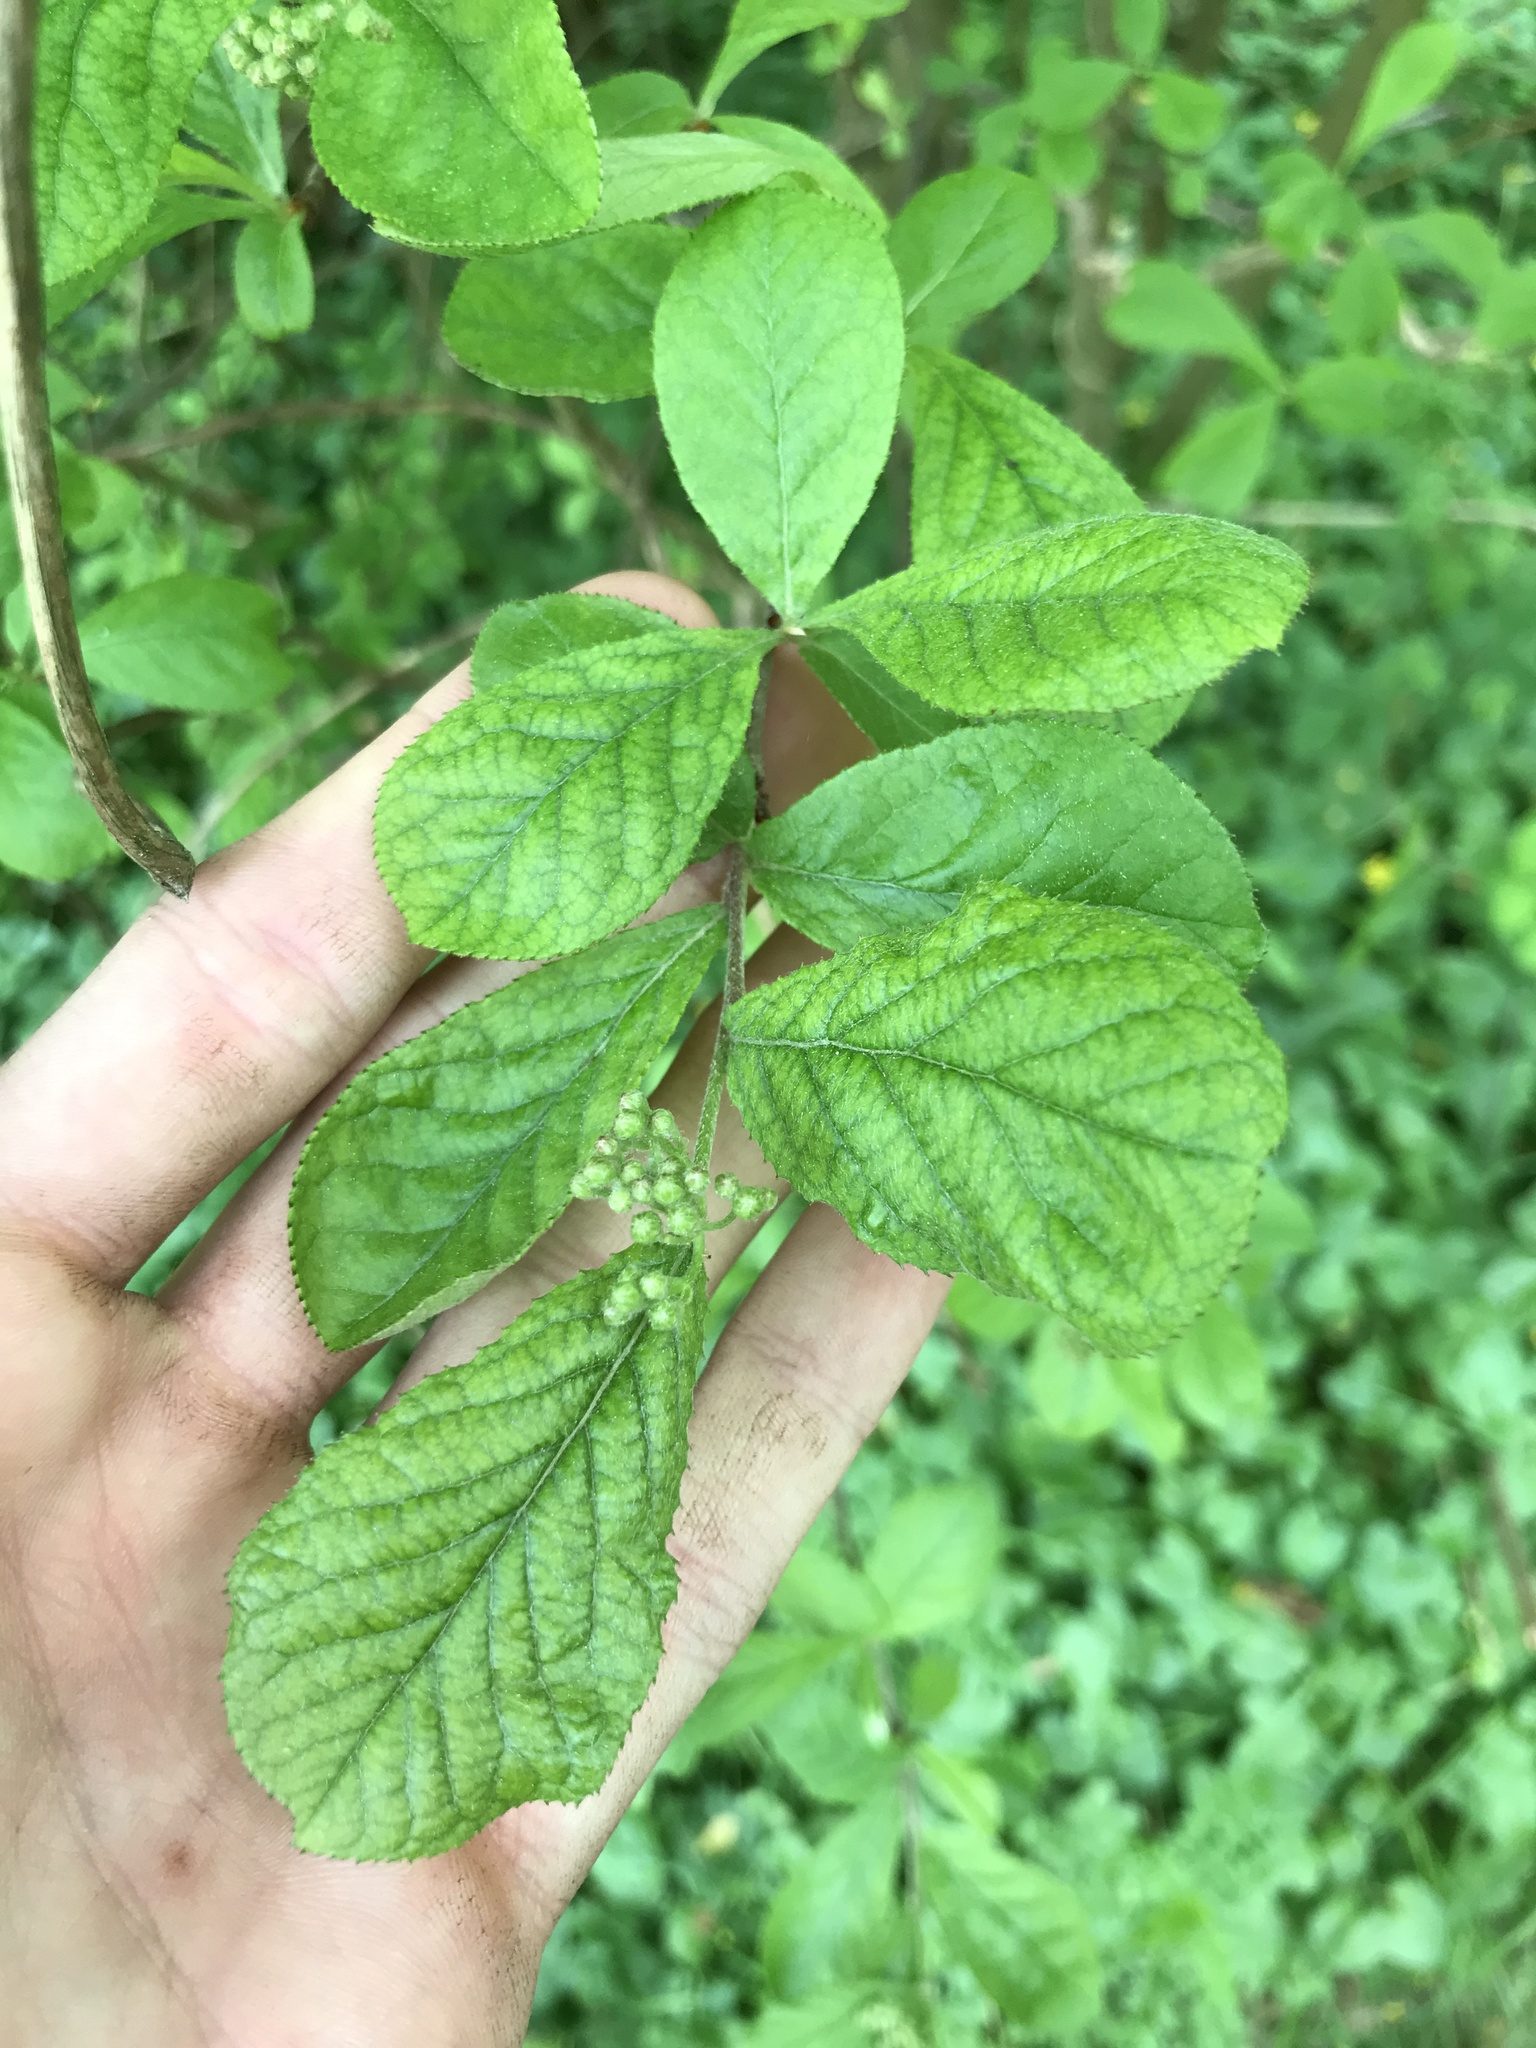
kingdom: Plantae
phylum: Tracheophyta
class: Magnoliopsida
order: Rosales
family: Rosaceae
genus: Pourthiaea
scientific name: Pourthiaea villosa
